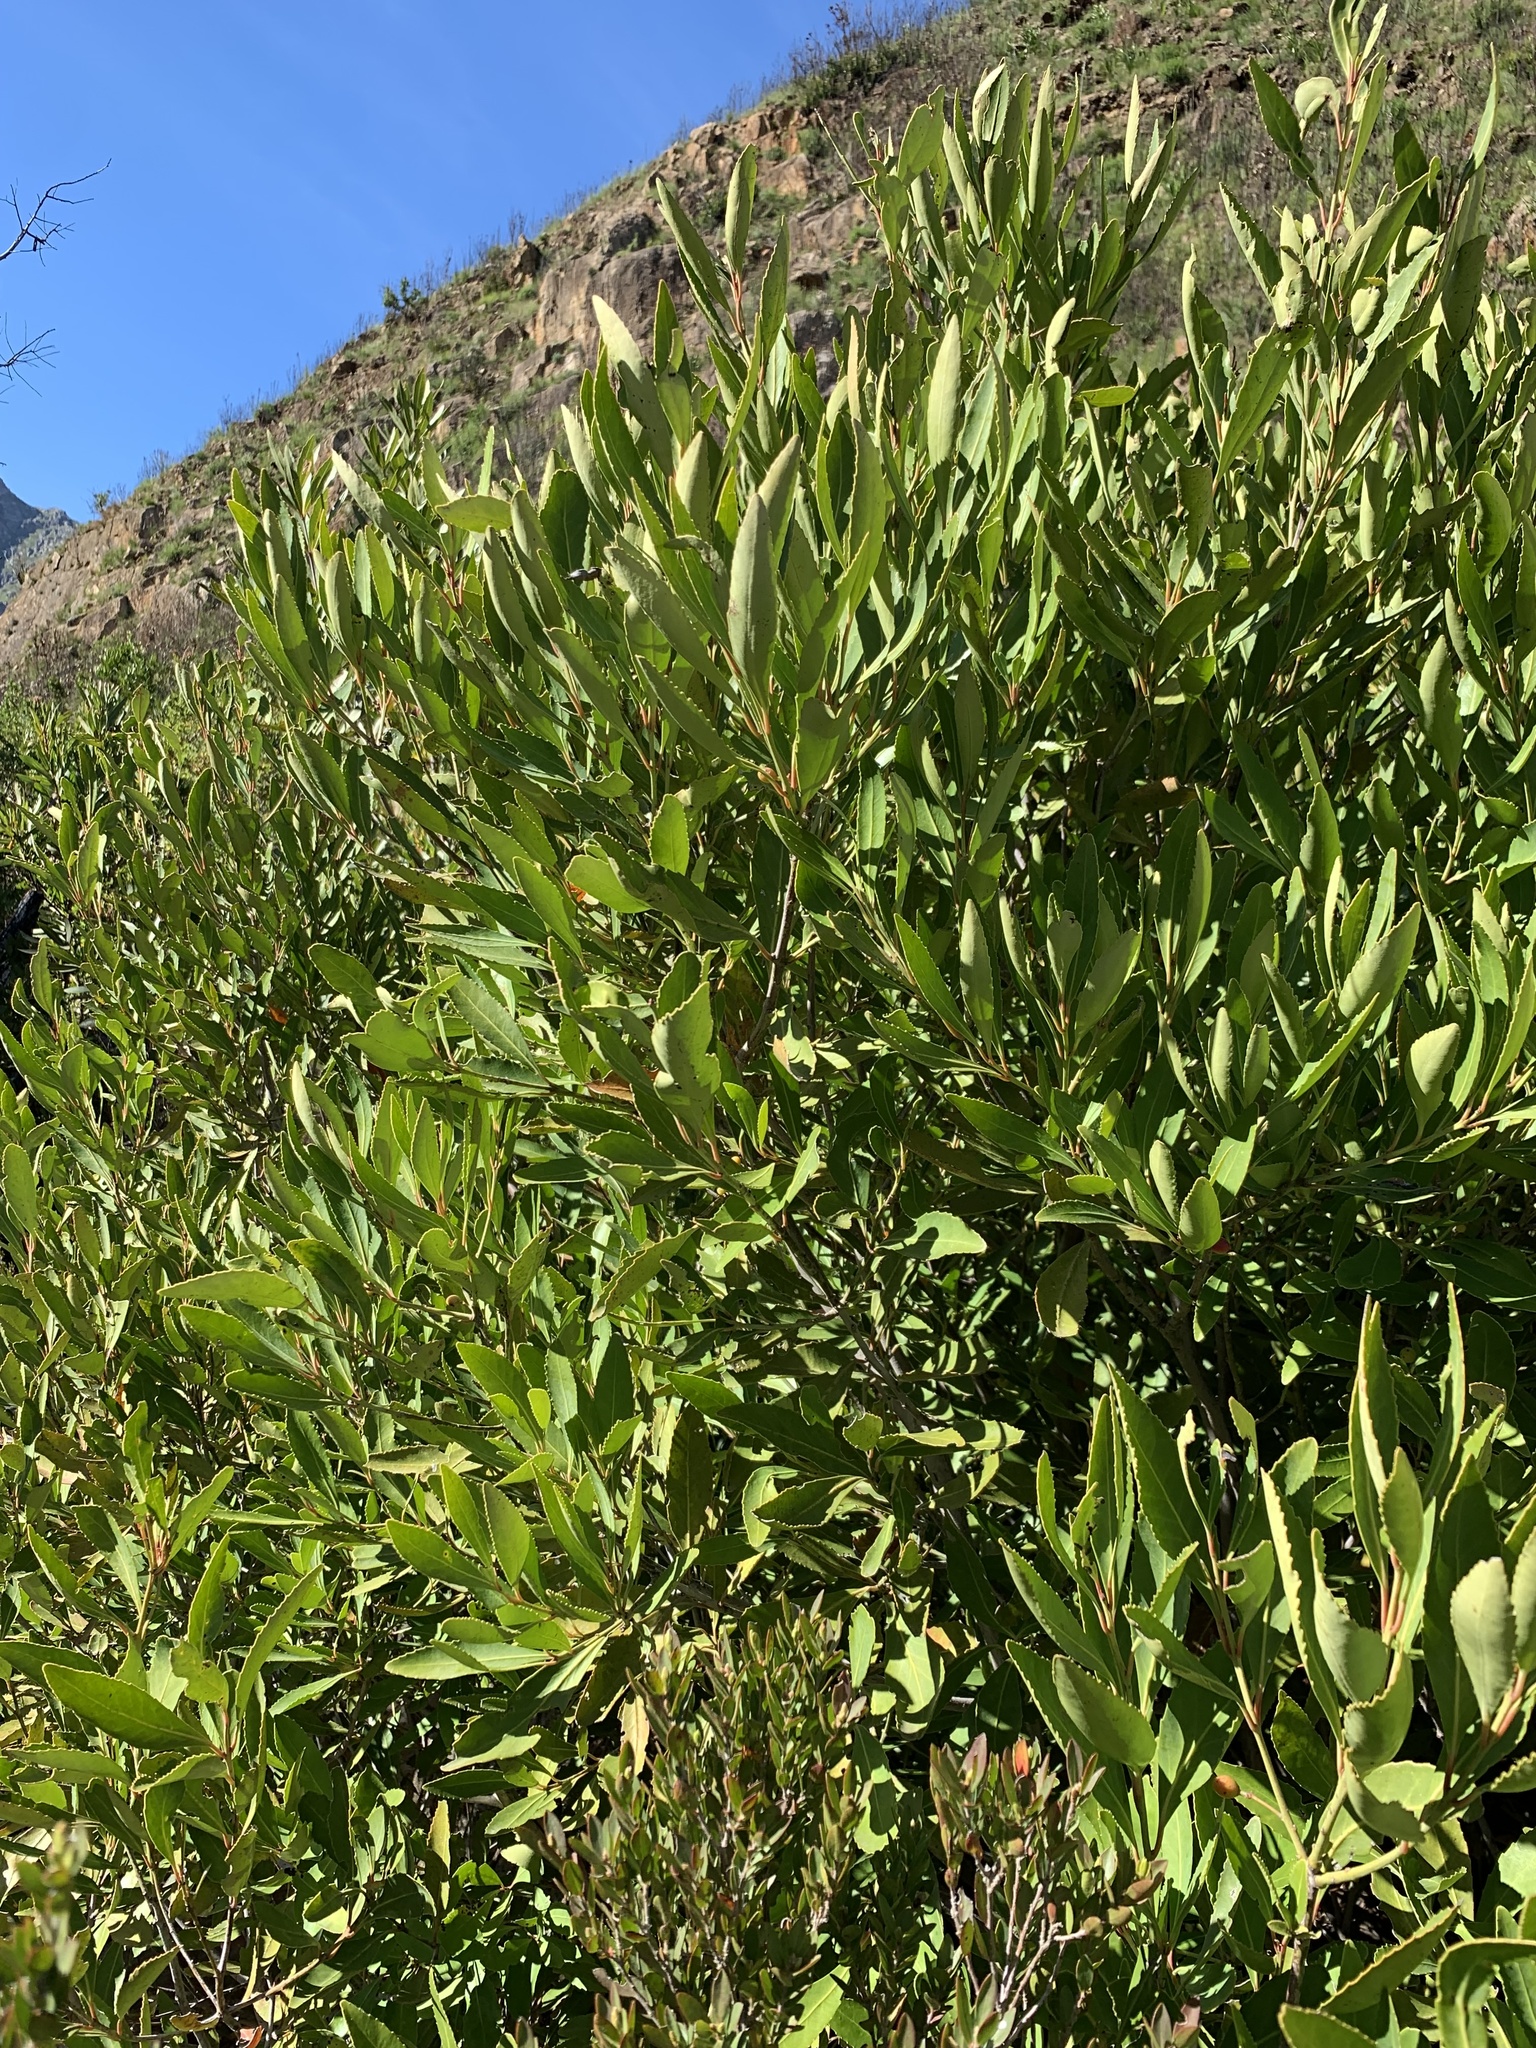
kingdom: Plantae
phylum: Tracheophyta
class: Magnoliopsida
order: Celastrales
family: Celastraceae
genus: Elaeodendron
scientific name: Elaeodendron schinoides
